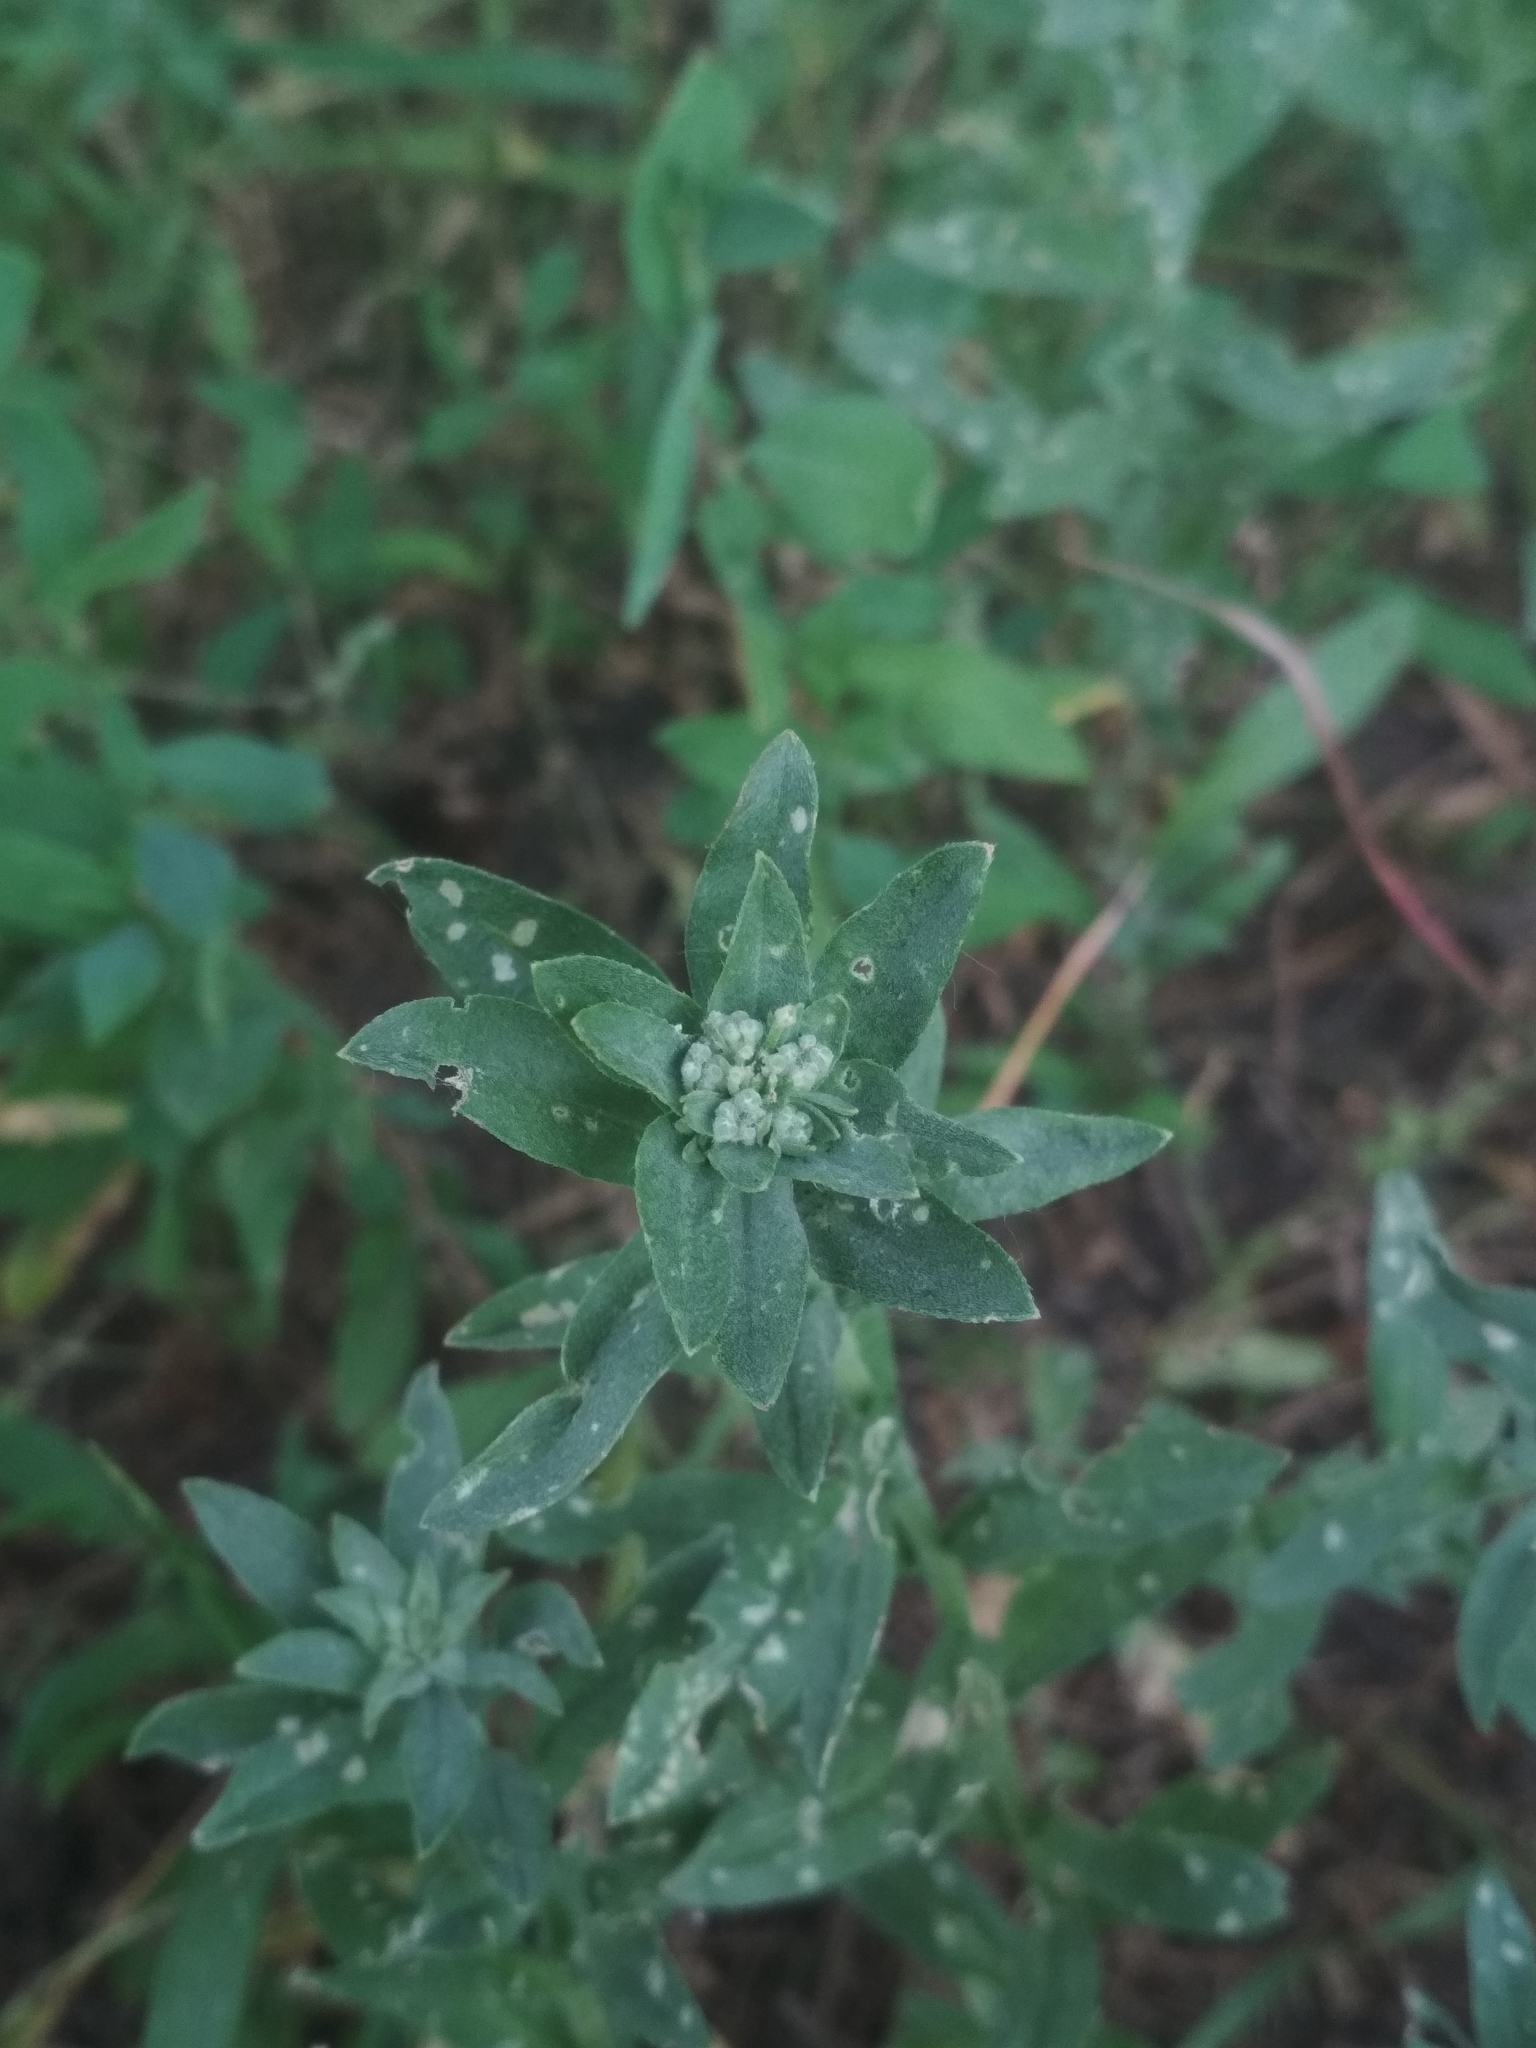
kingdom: Plantae
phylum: Tracheophyta
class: Magnoliopsida
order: Brassicales
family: Brassicaceae
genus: Berteroa
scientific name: Berteroa incana
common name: Hoary alison
